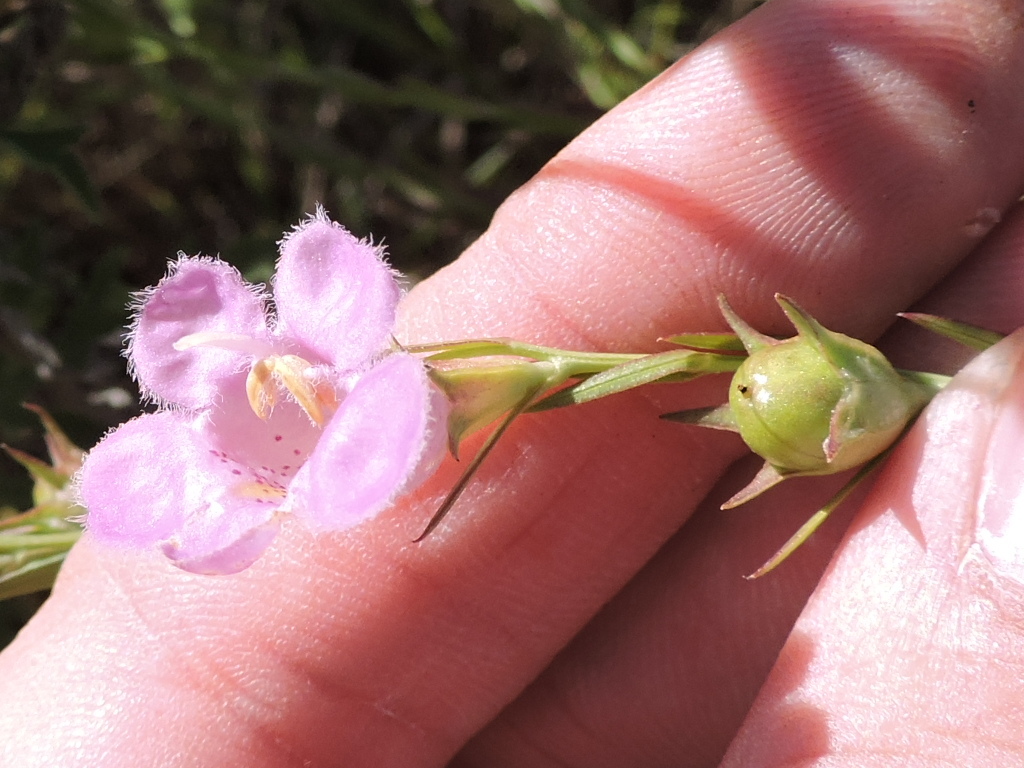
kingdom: Plantae
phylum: Tracheophyta
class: Magnoliopsida
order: Lamiales
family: Orobanchaceae
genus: Agalinis
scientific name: Agalinis heterophylla
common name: Prairie agalinis
